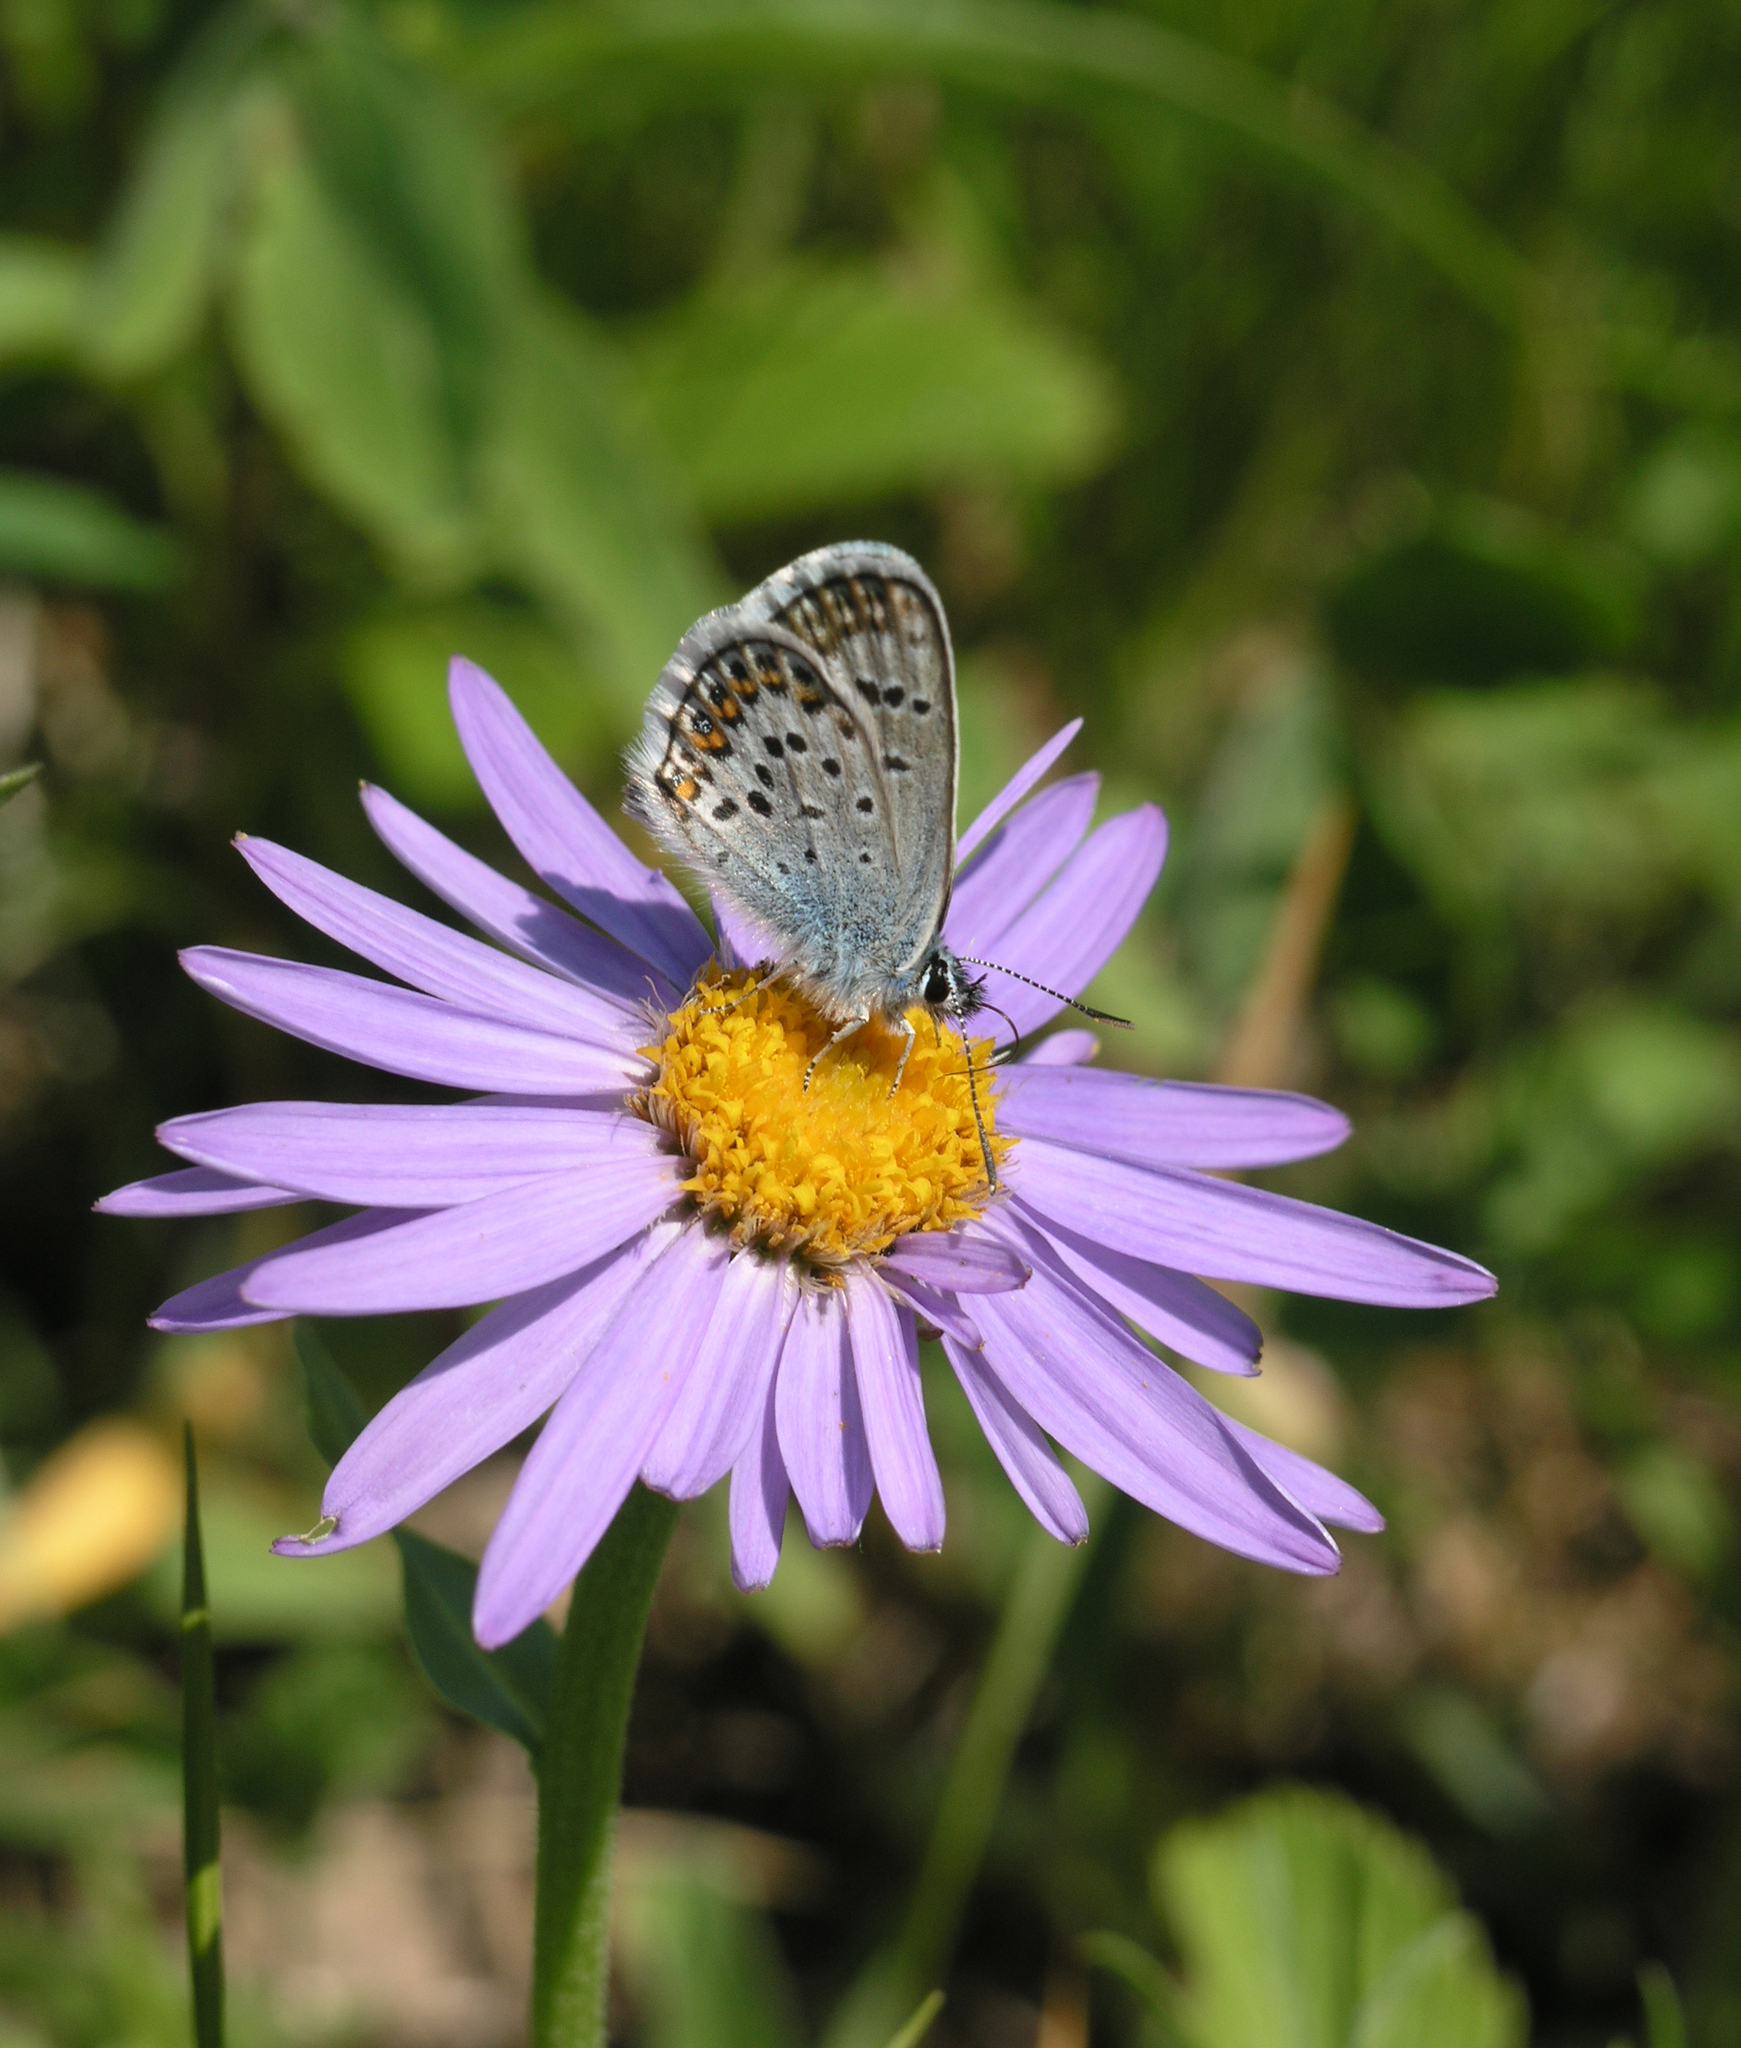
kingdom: Animalia
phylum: Arthropoda
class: Insecta
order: Lepidoptera
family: Lycaenidae
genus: Plebejus
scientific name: Plebejus argus
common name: Silver-studded blue
